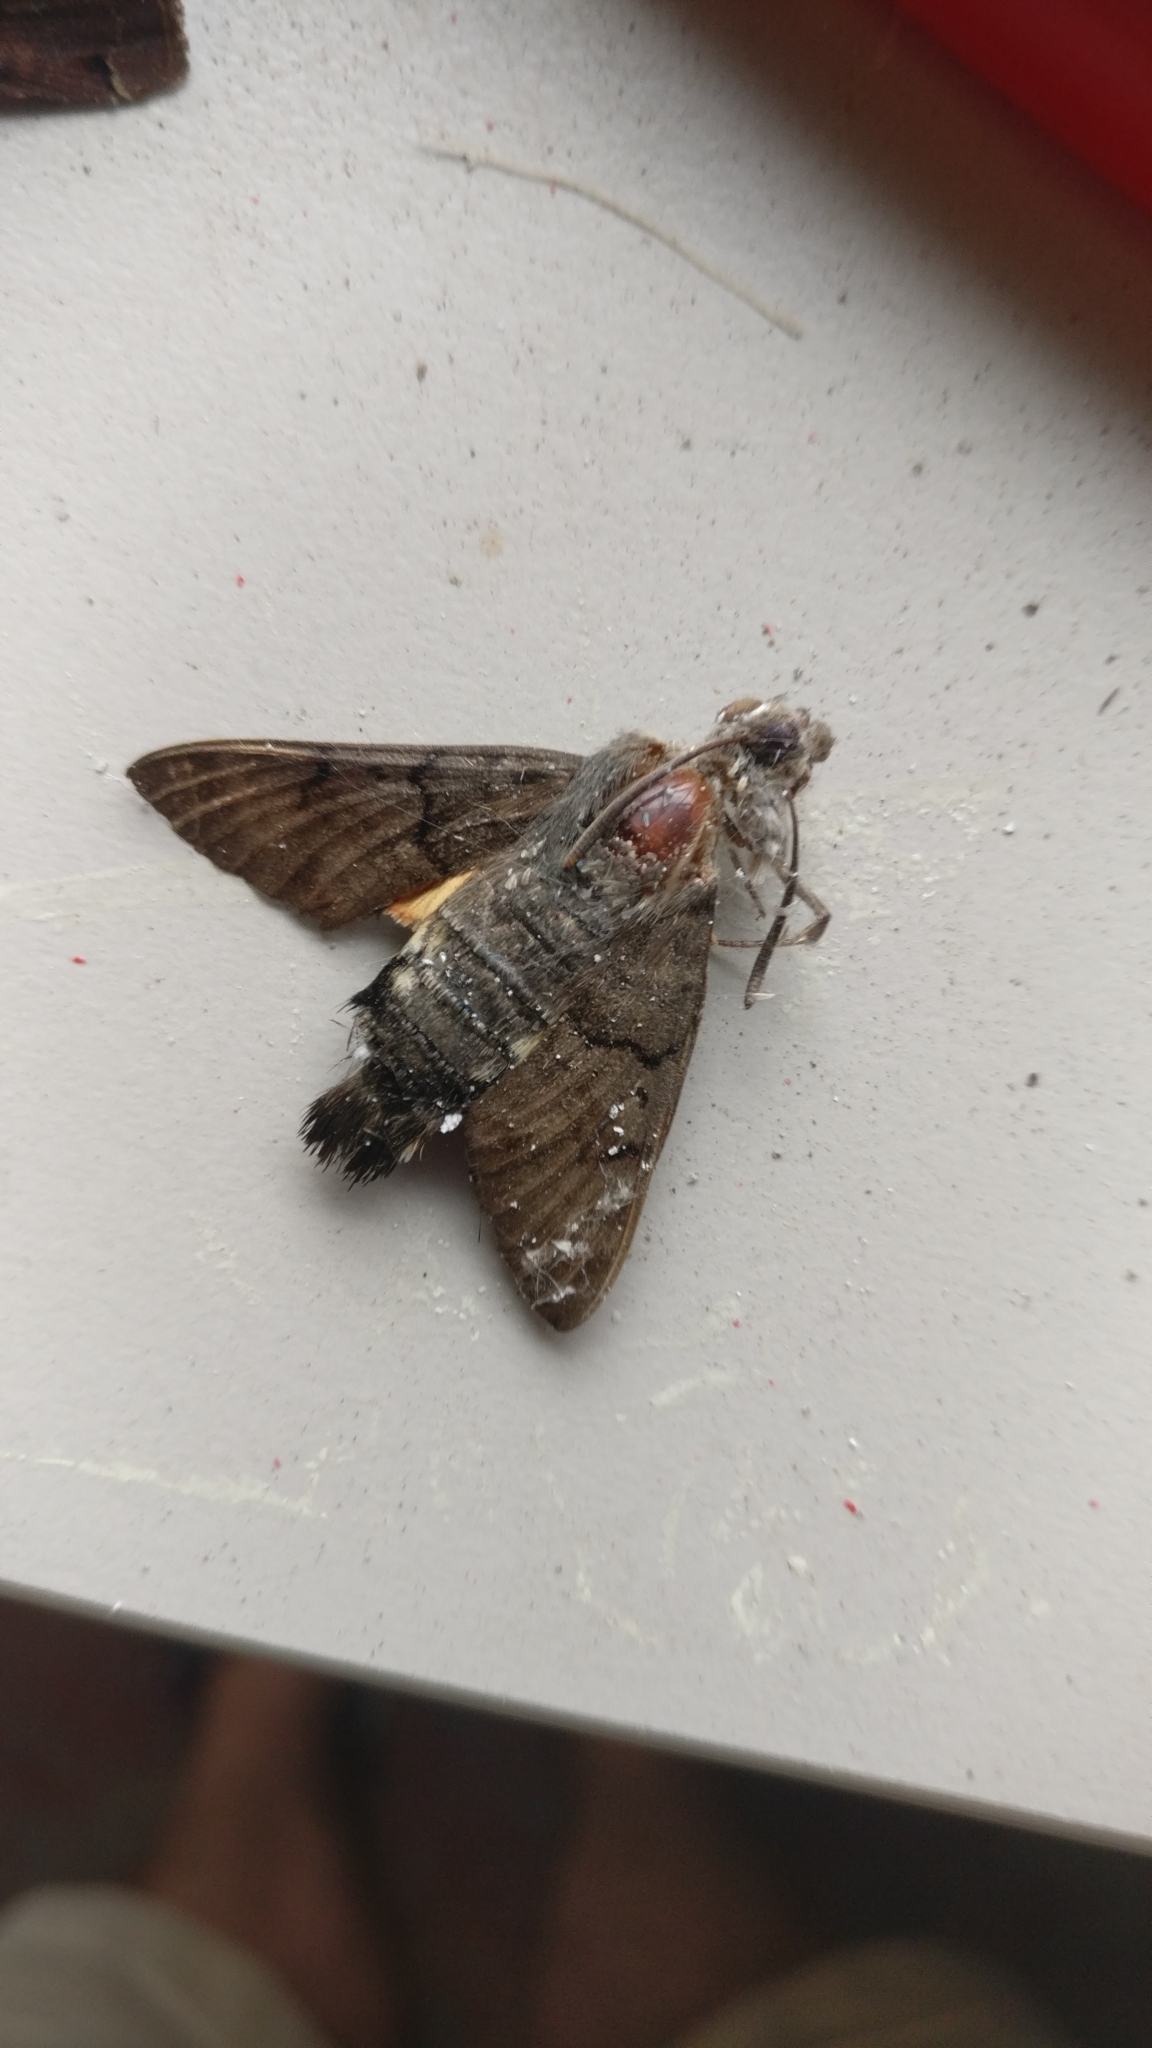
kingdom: Animalia
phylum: Arthropoda
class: Insecta
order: Lepidoptera
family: Sphingidae
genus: Macroglossum
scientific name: Macroglossum stellatarum
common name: Humming-bird hawk-moth
